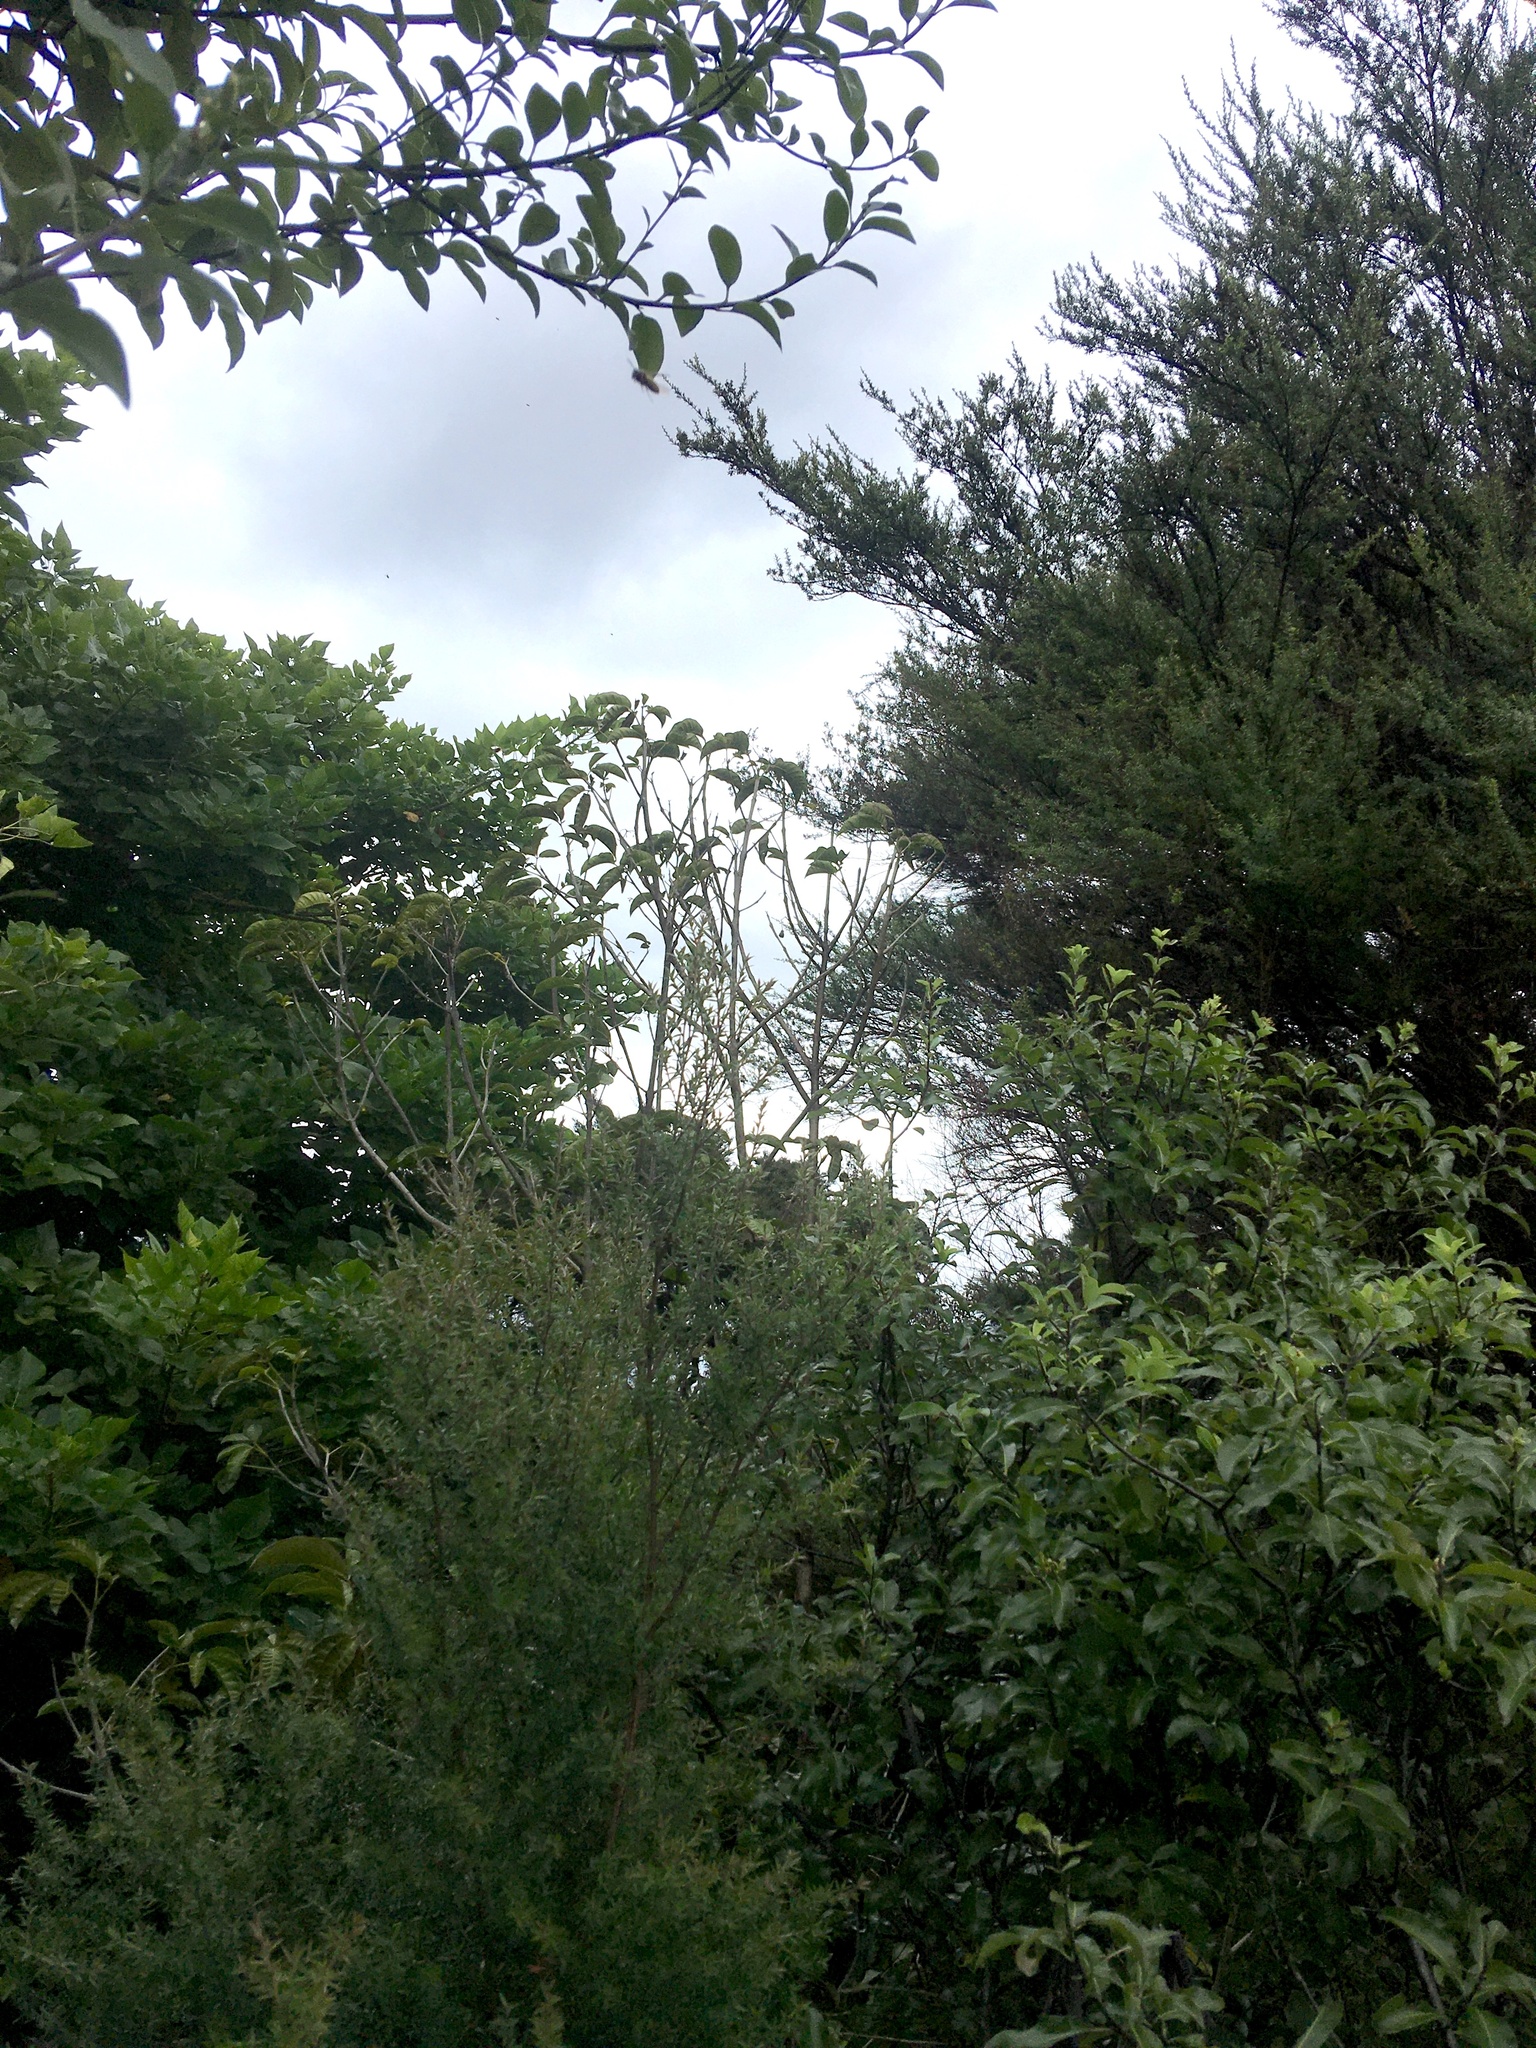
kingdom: Plantae
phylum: Tracheophyta
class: Magnoliopsida
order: Lamiales
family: Lamiaceae
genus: Vitex
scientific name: Vitex lucens
